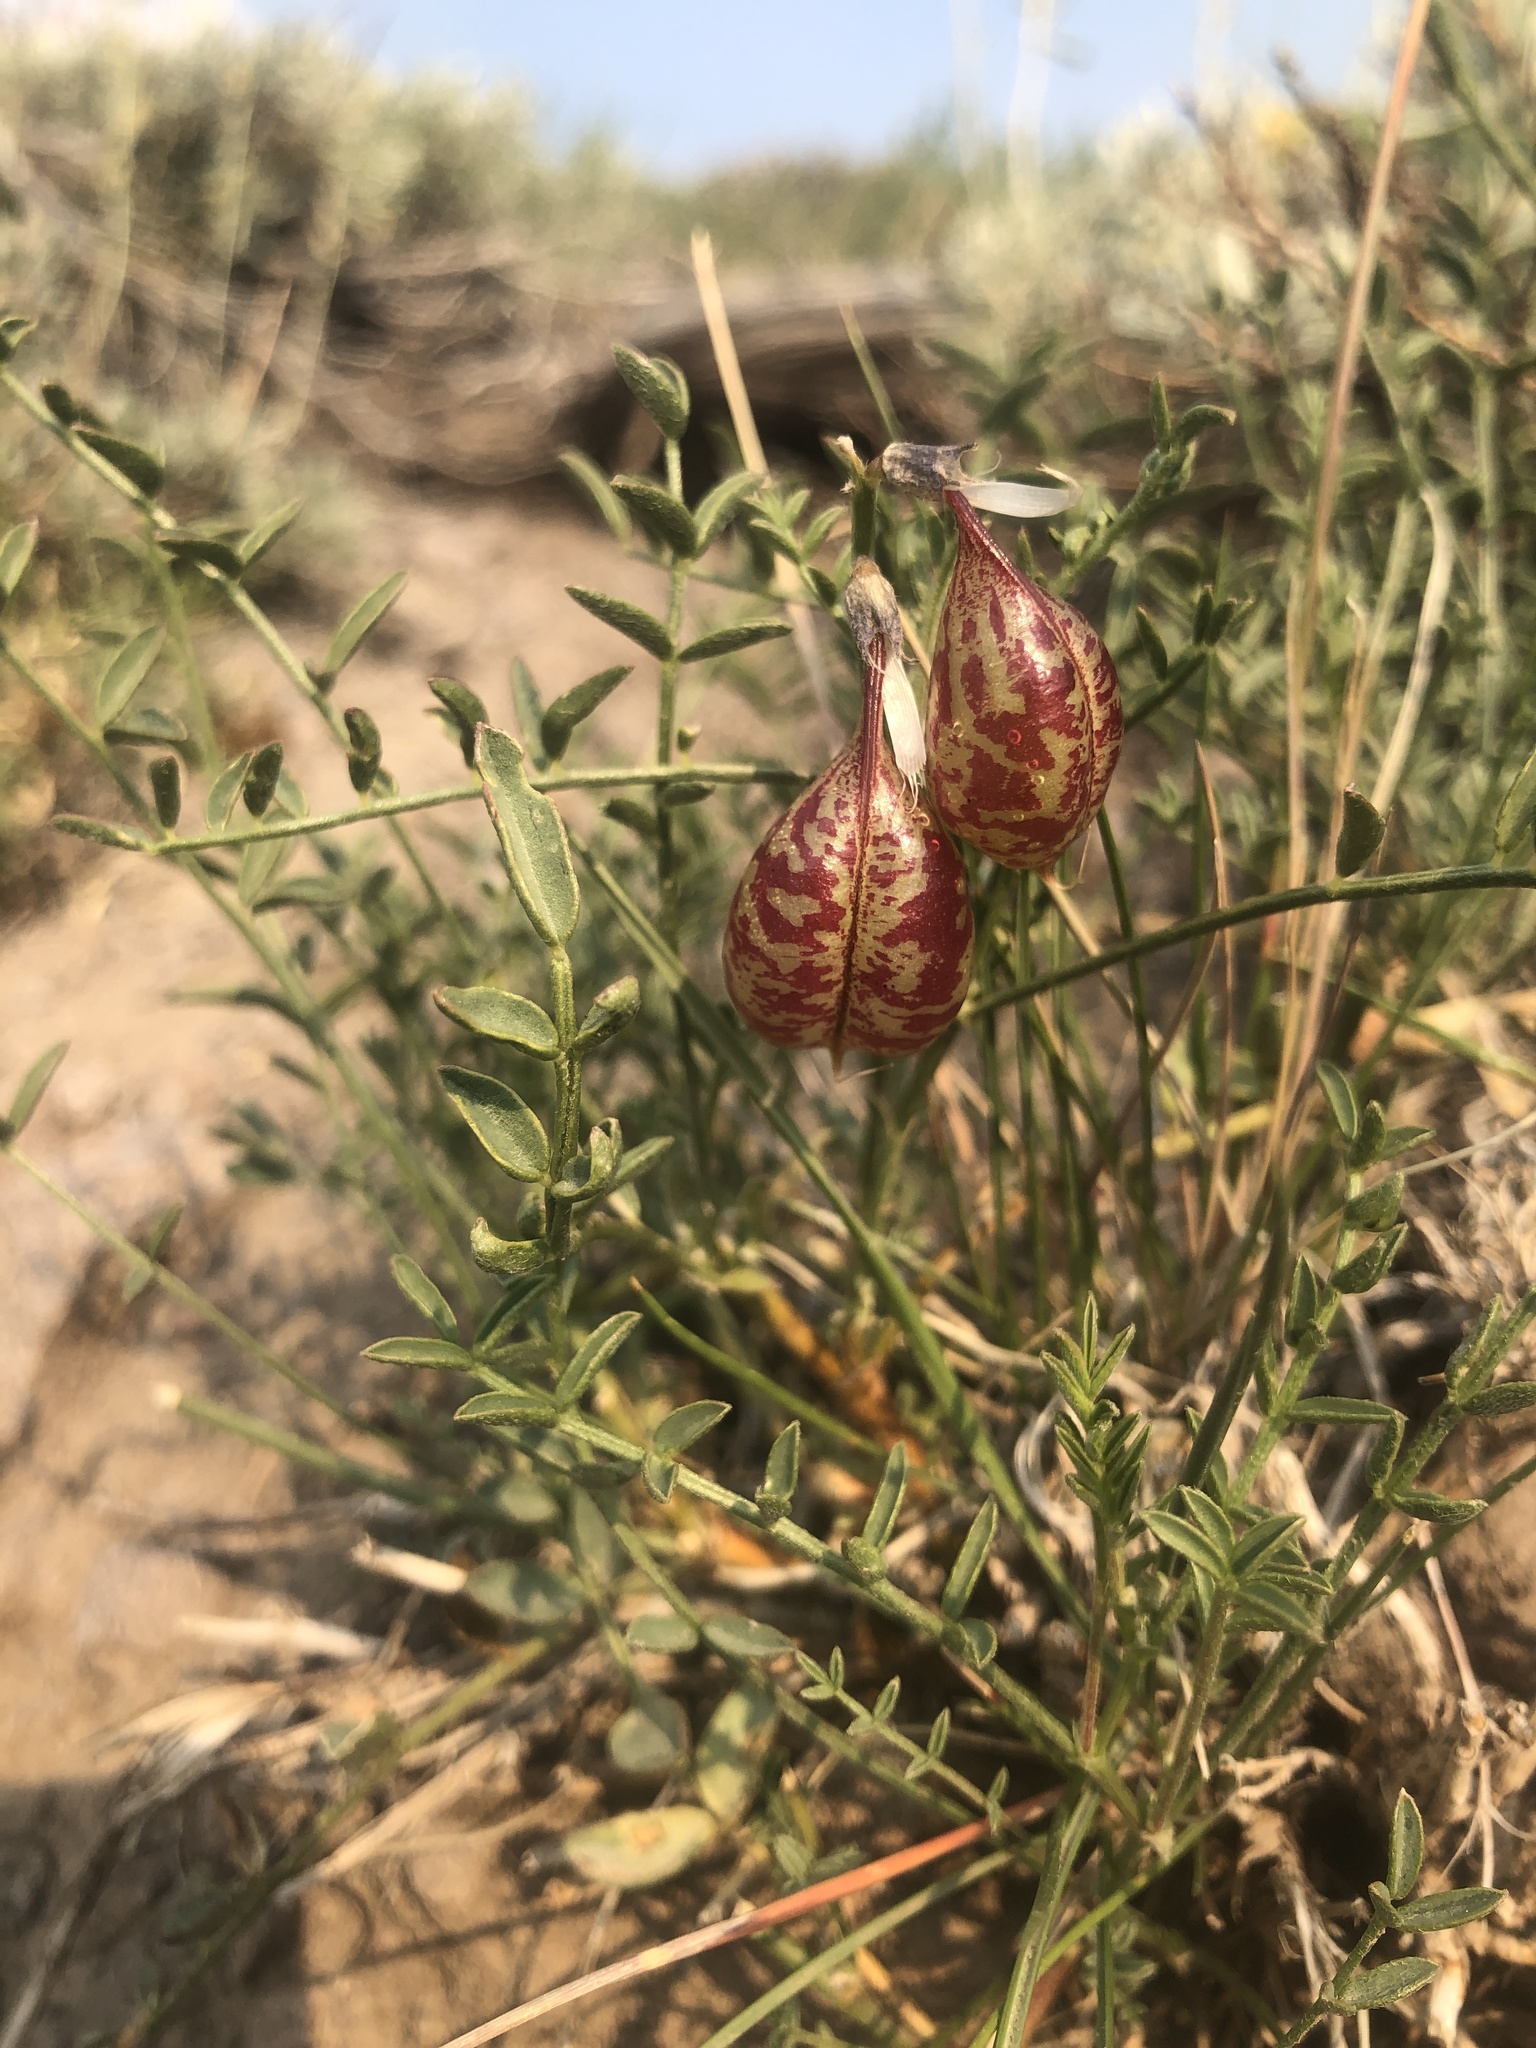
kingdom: Plantae
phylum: Tracheophyta
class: Magnoliopsida
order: Fabales
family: Fabaceae
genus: Astragalus
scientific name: Astragalus whitneyi
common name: Balloonpod milkvetch
